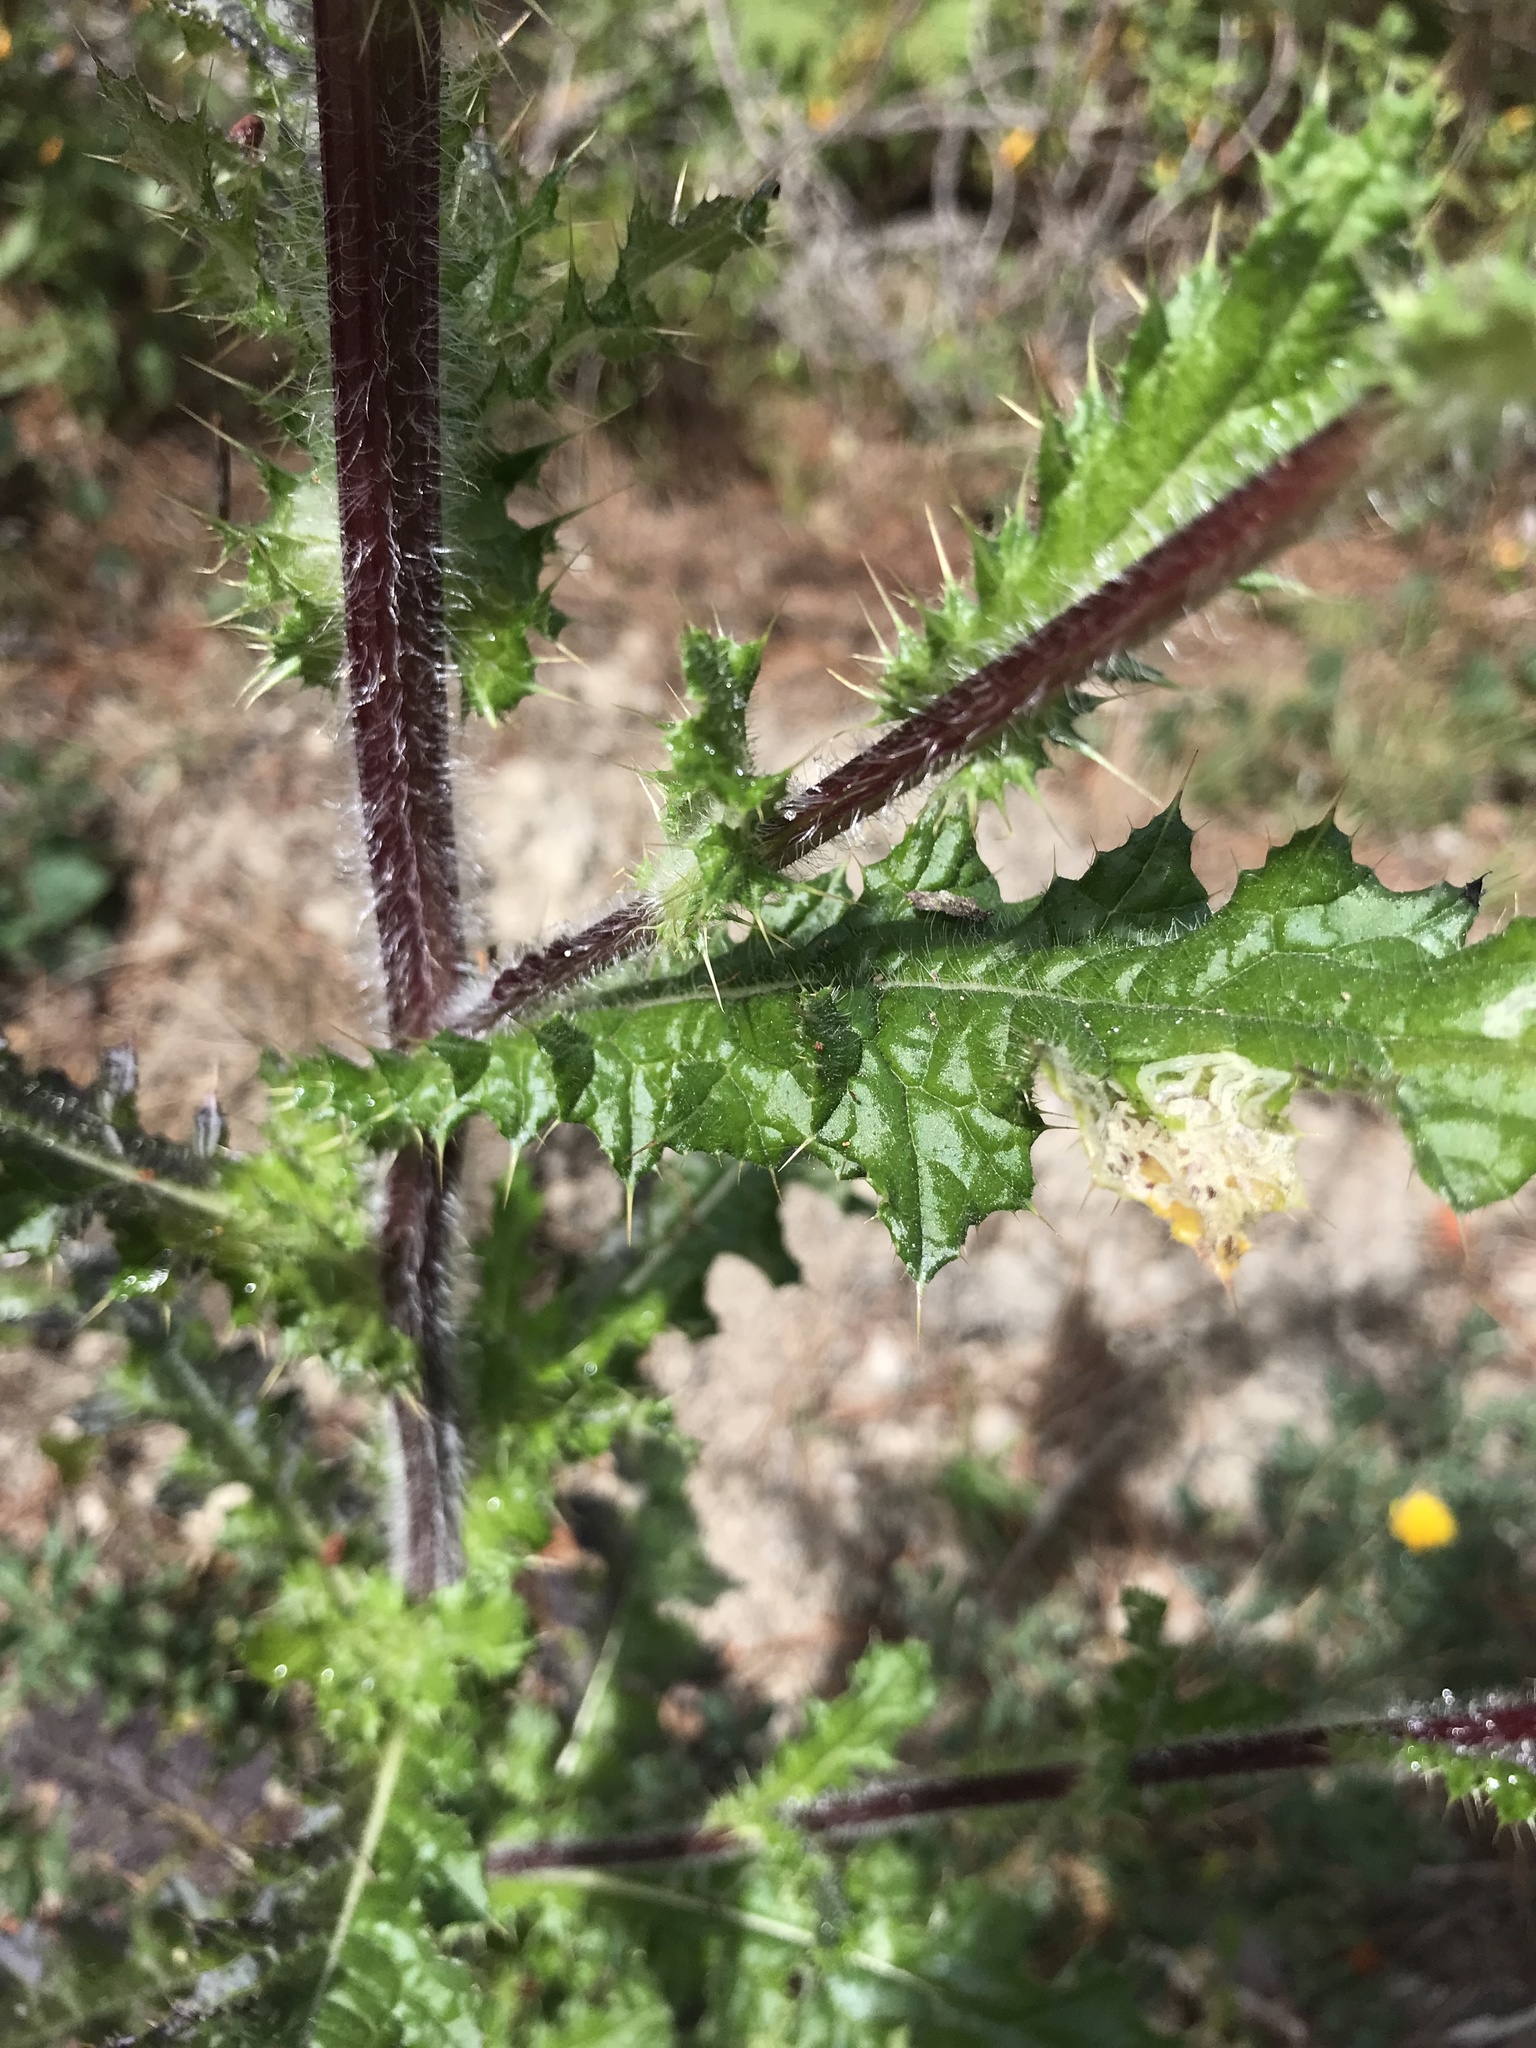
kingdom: Plantae
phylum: Tracheophyta
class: Magnoliopsida
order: Asterales
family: Asteraceae
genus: Cirsium
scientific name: Cirsium brevistylum
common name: Indian thistle
